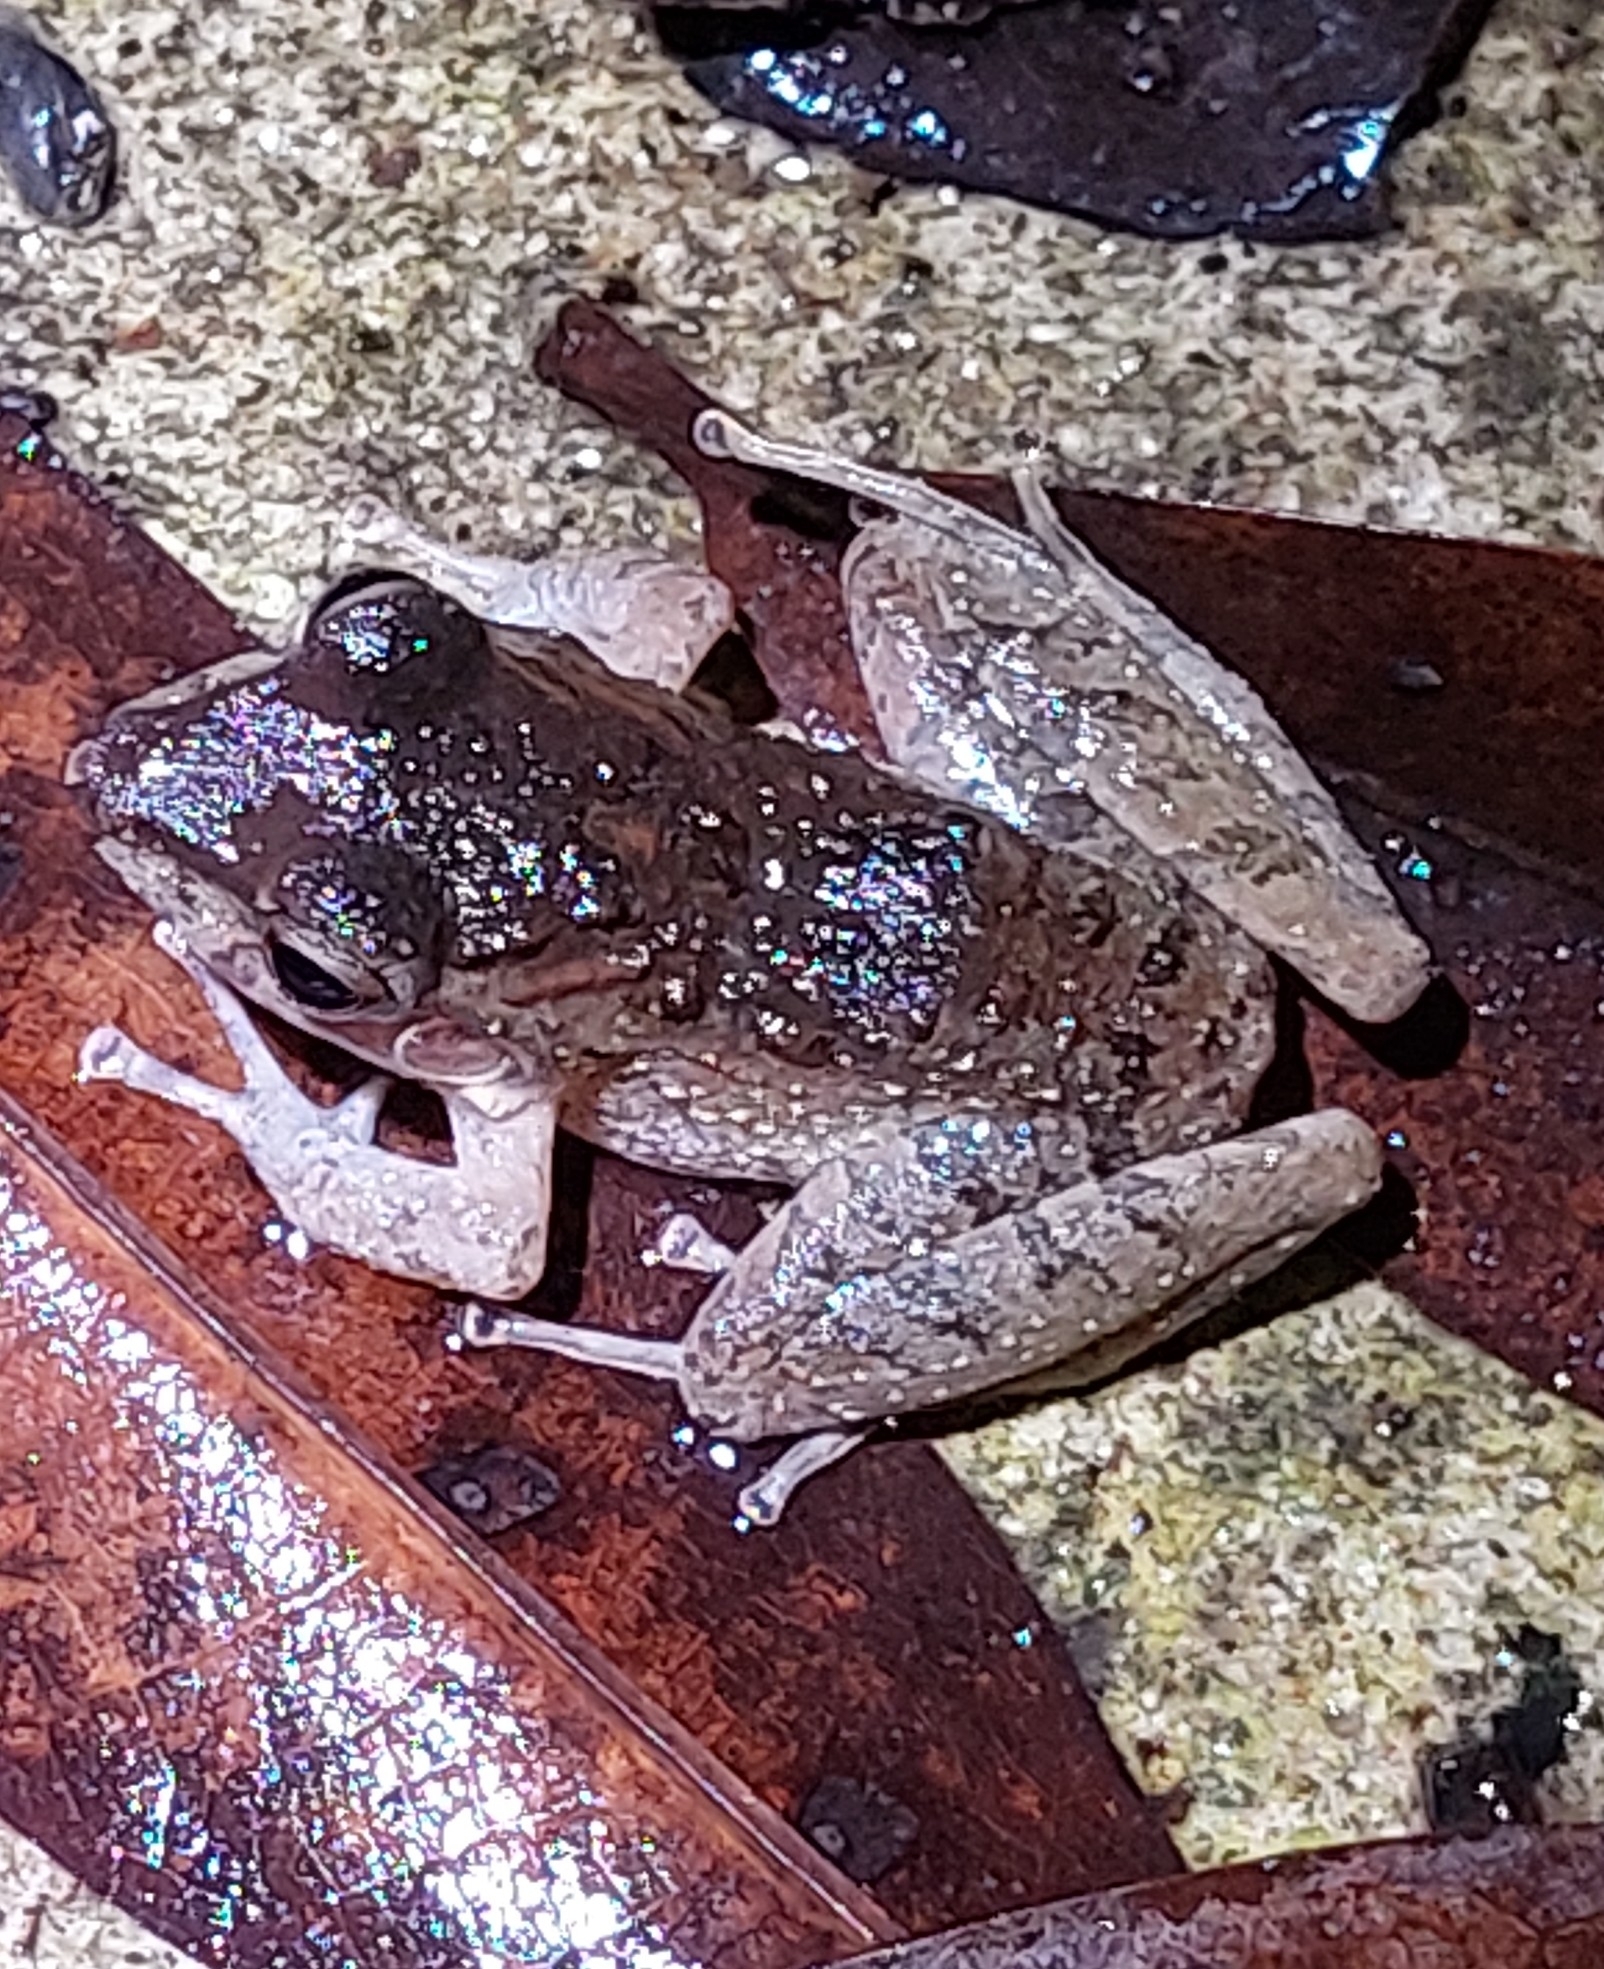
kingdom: Animalia
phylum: Chordata
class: Amphibia
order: Anura
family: Craugastoridae
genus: Craugastor
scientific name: Craugastor fitzingeri
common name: Fitzinger's robber frog
